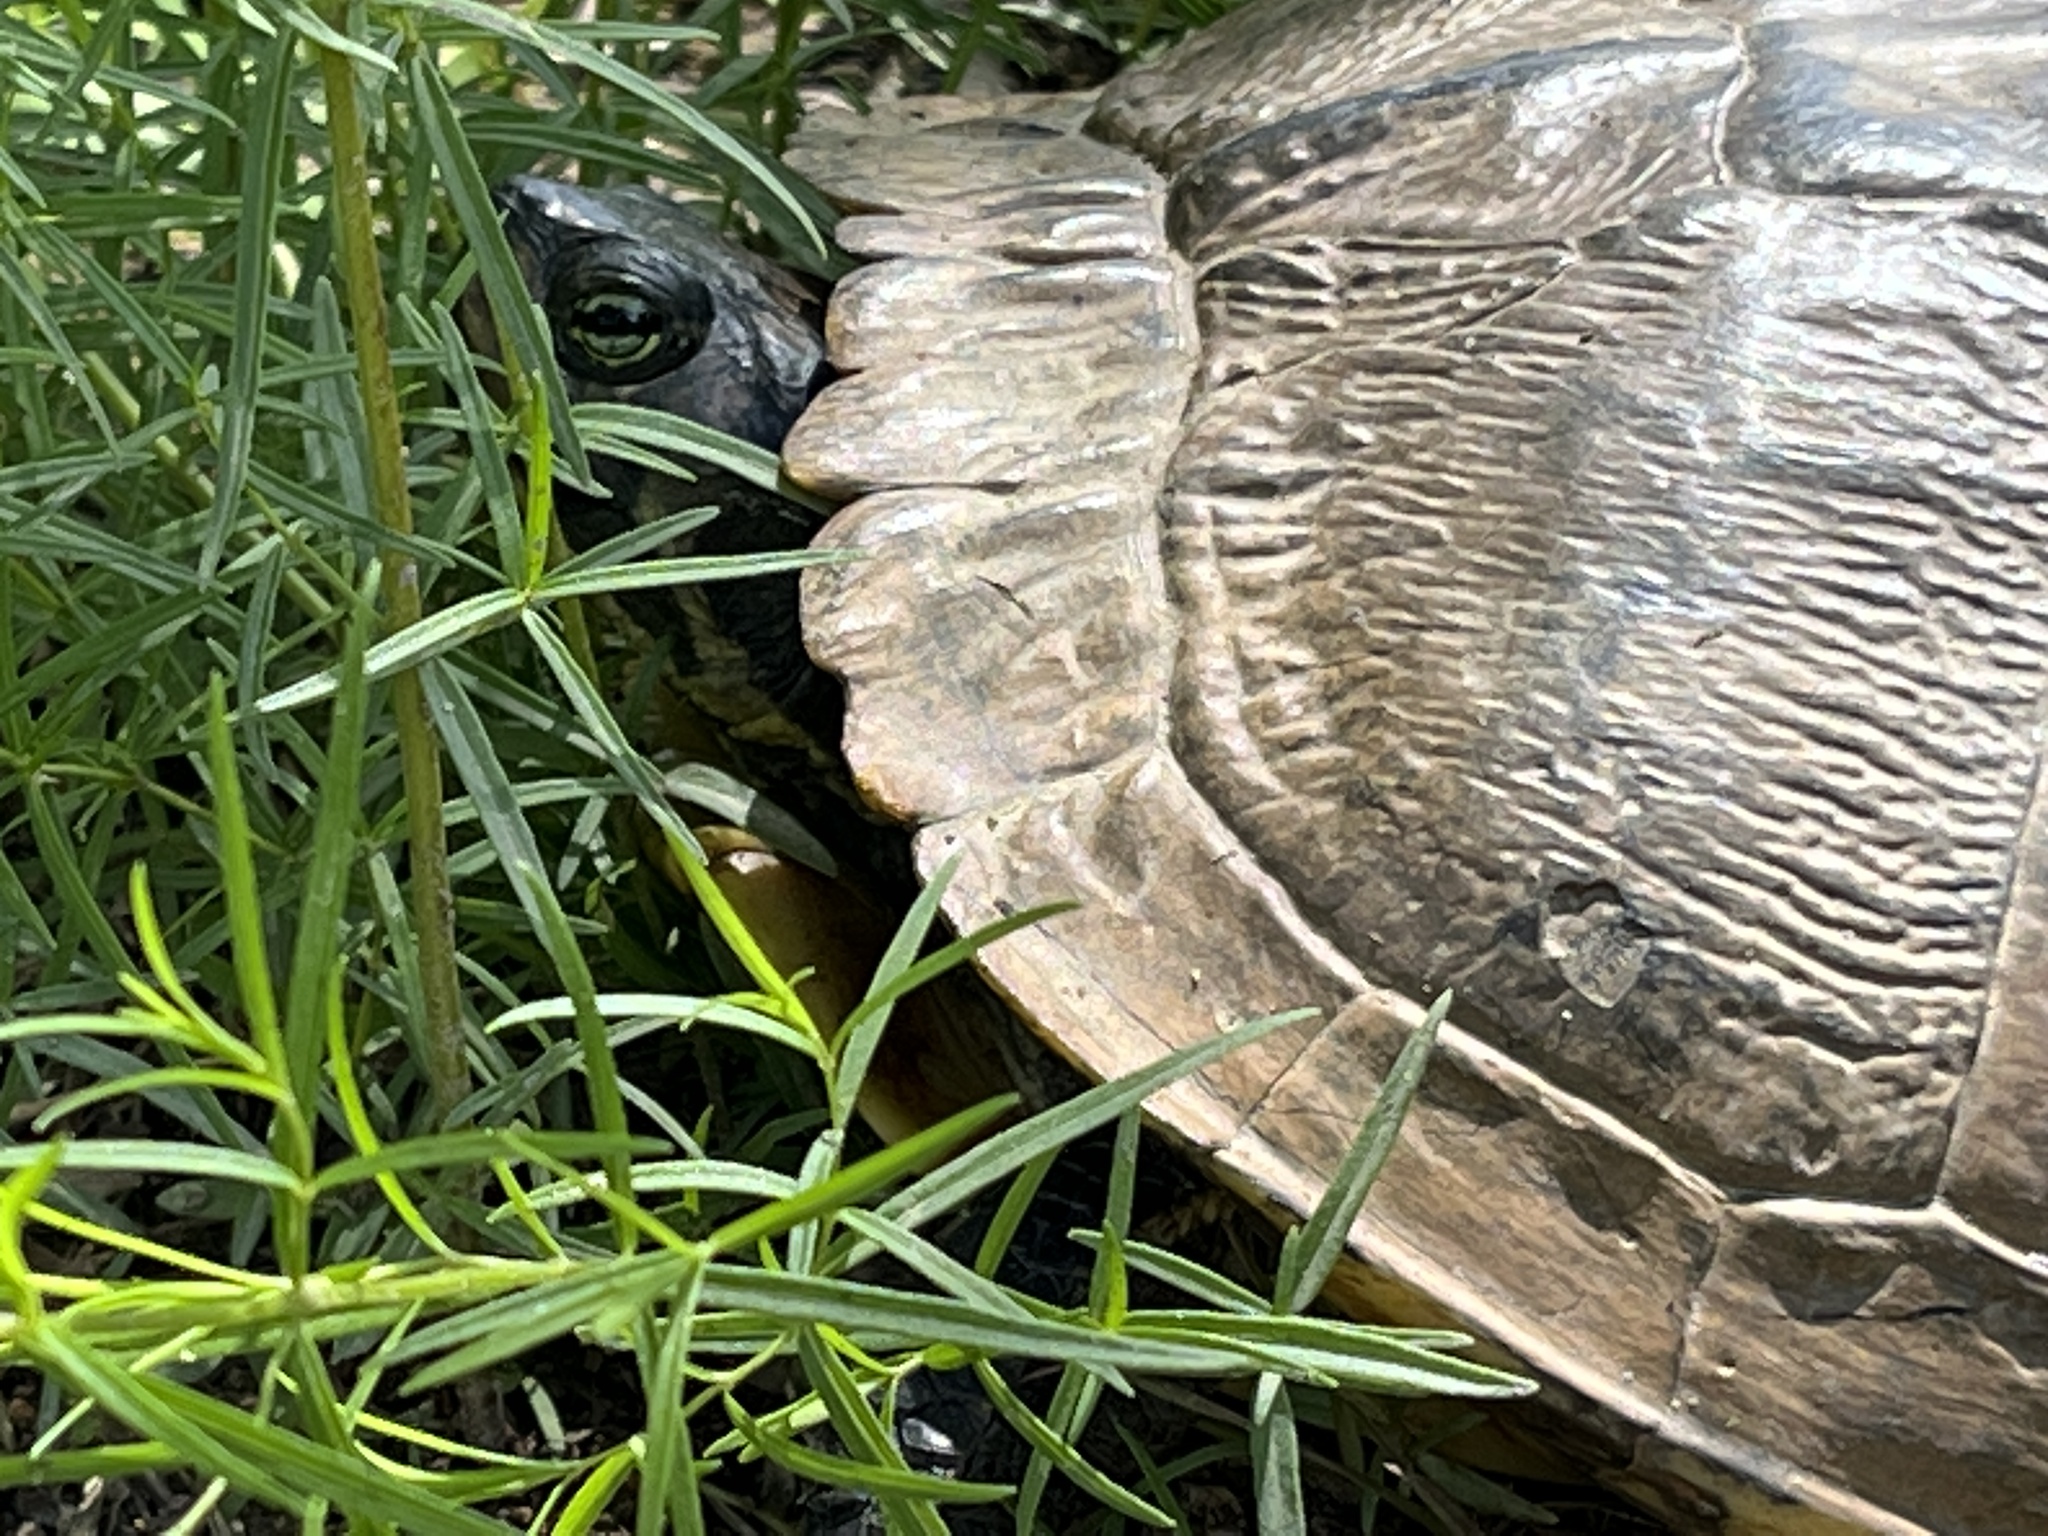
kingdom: Animalia
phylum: Chordata
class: Testudines
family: Emydidae
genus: Trachemys
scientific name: Trachemys scripta
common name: Slider
